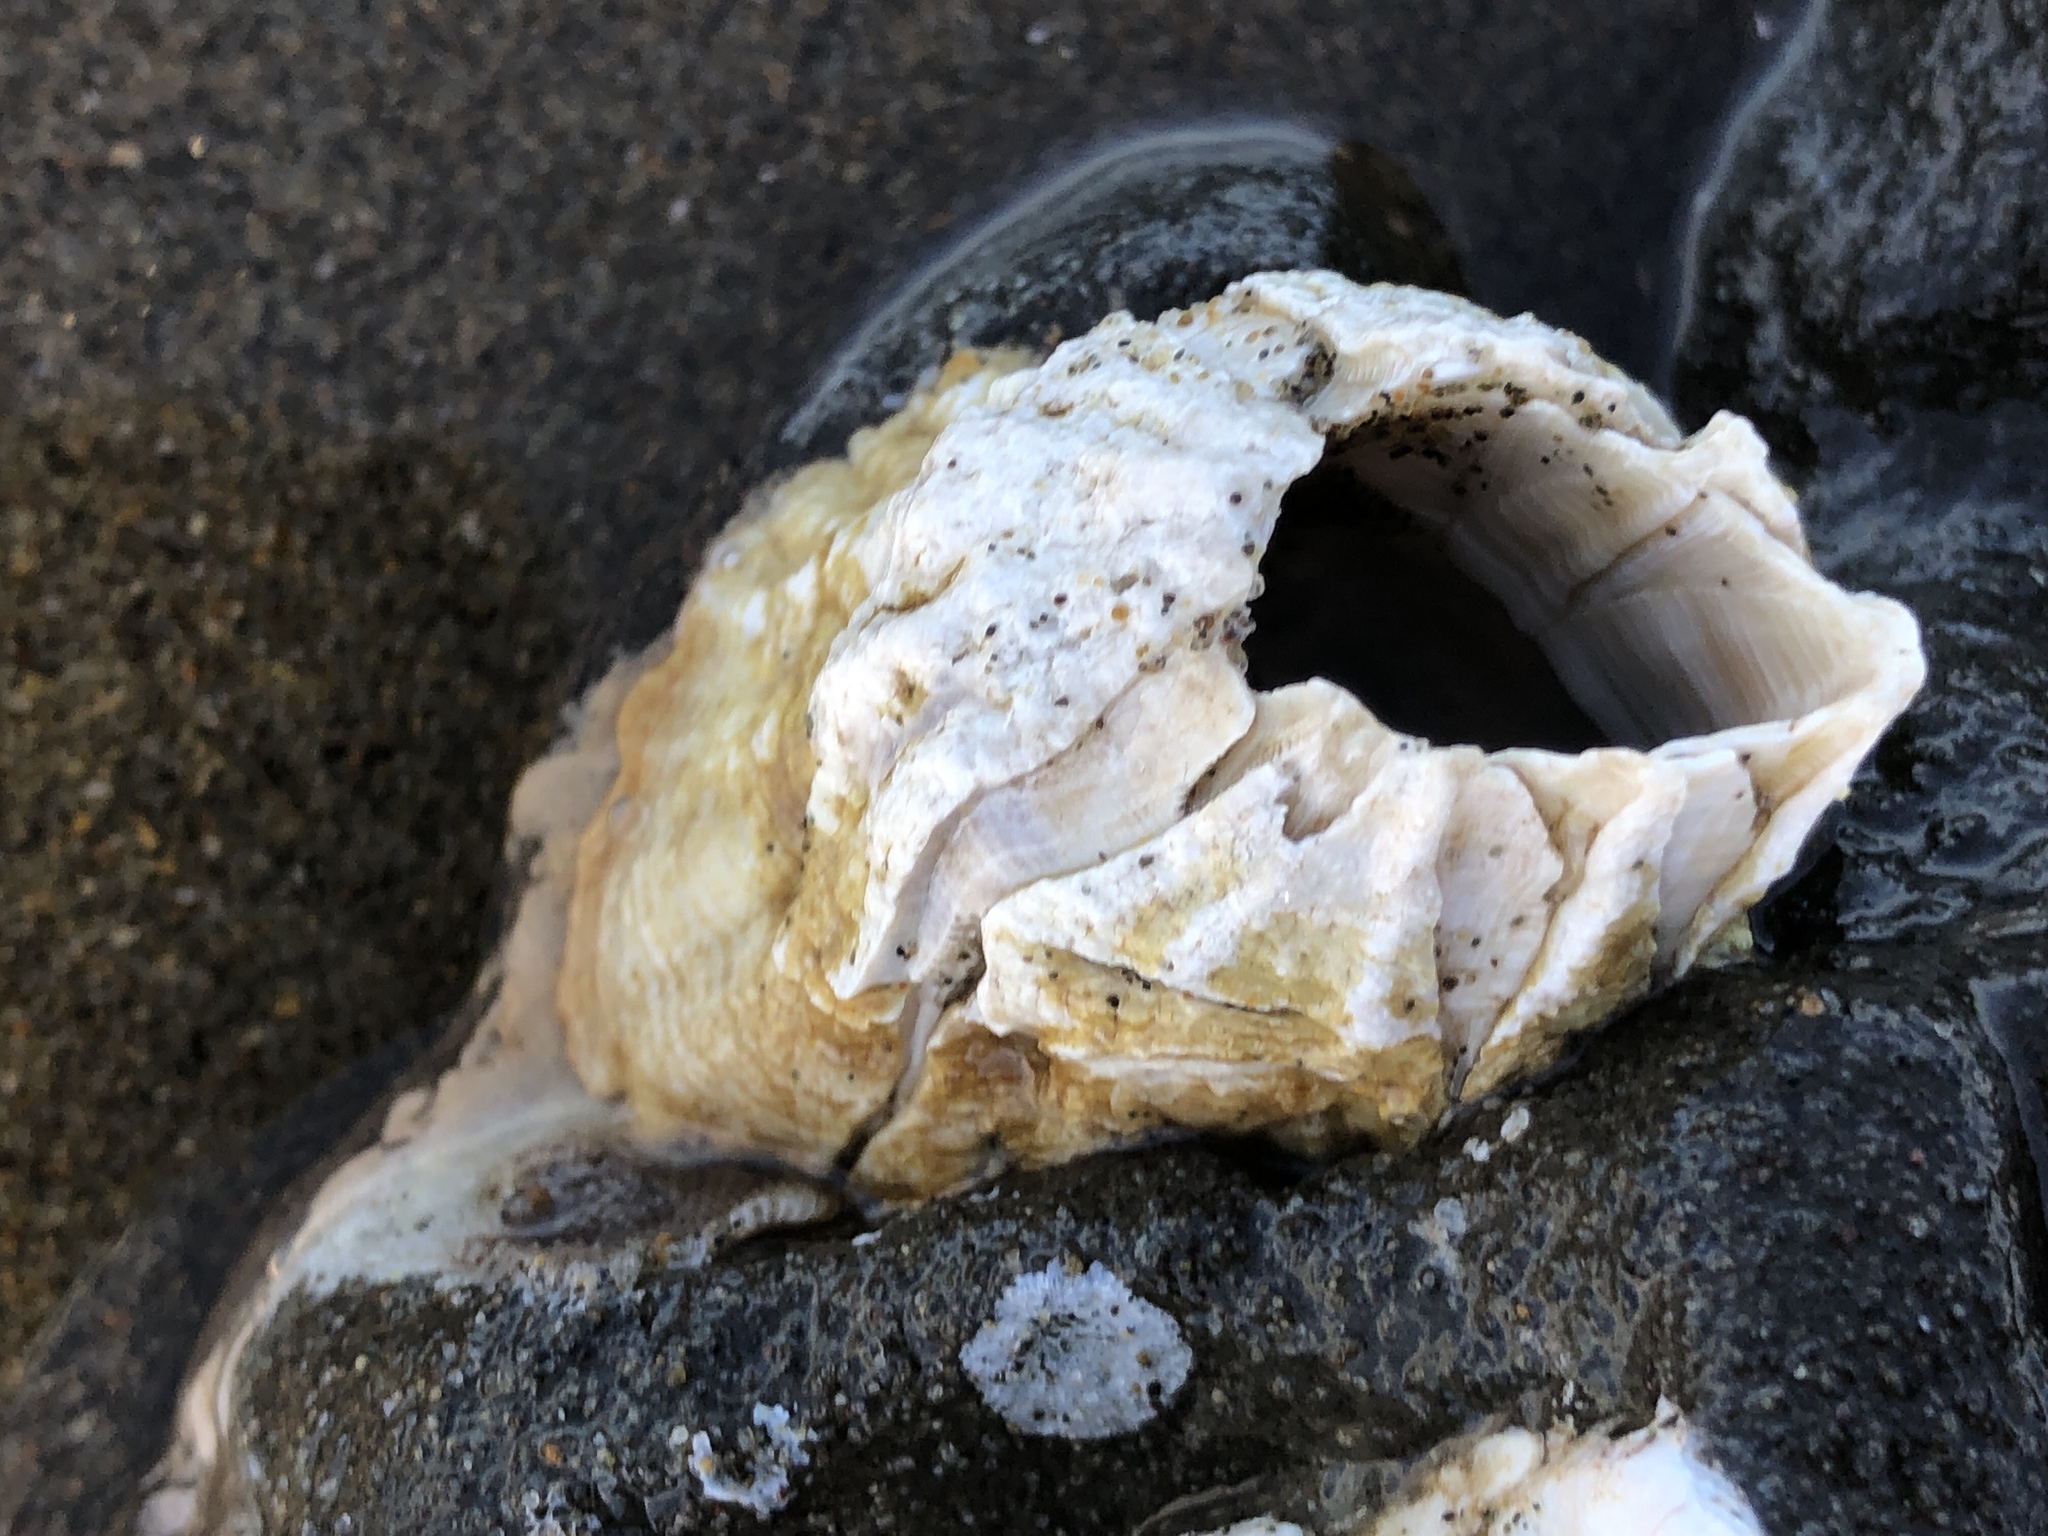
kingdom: Animalia
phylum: Arthropoda
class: Maxillopoda
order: Sessilia
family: Balanidae
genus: Menesiniella
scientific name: Menesiniella aquila
